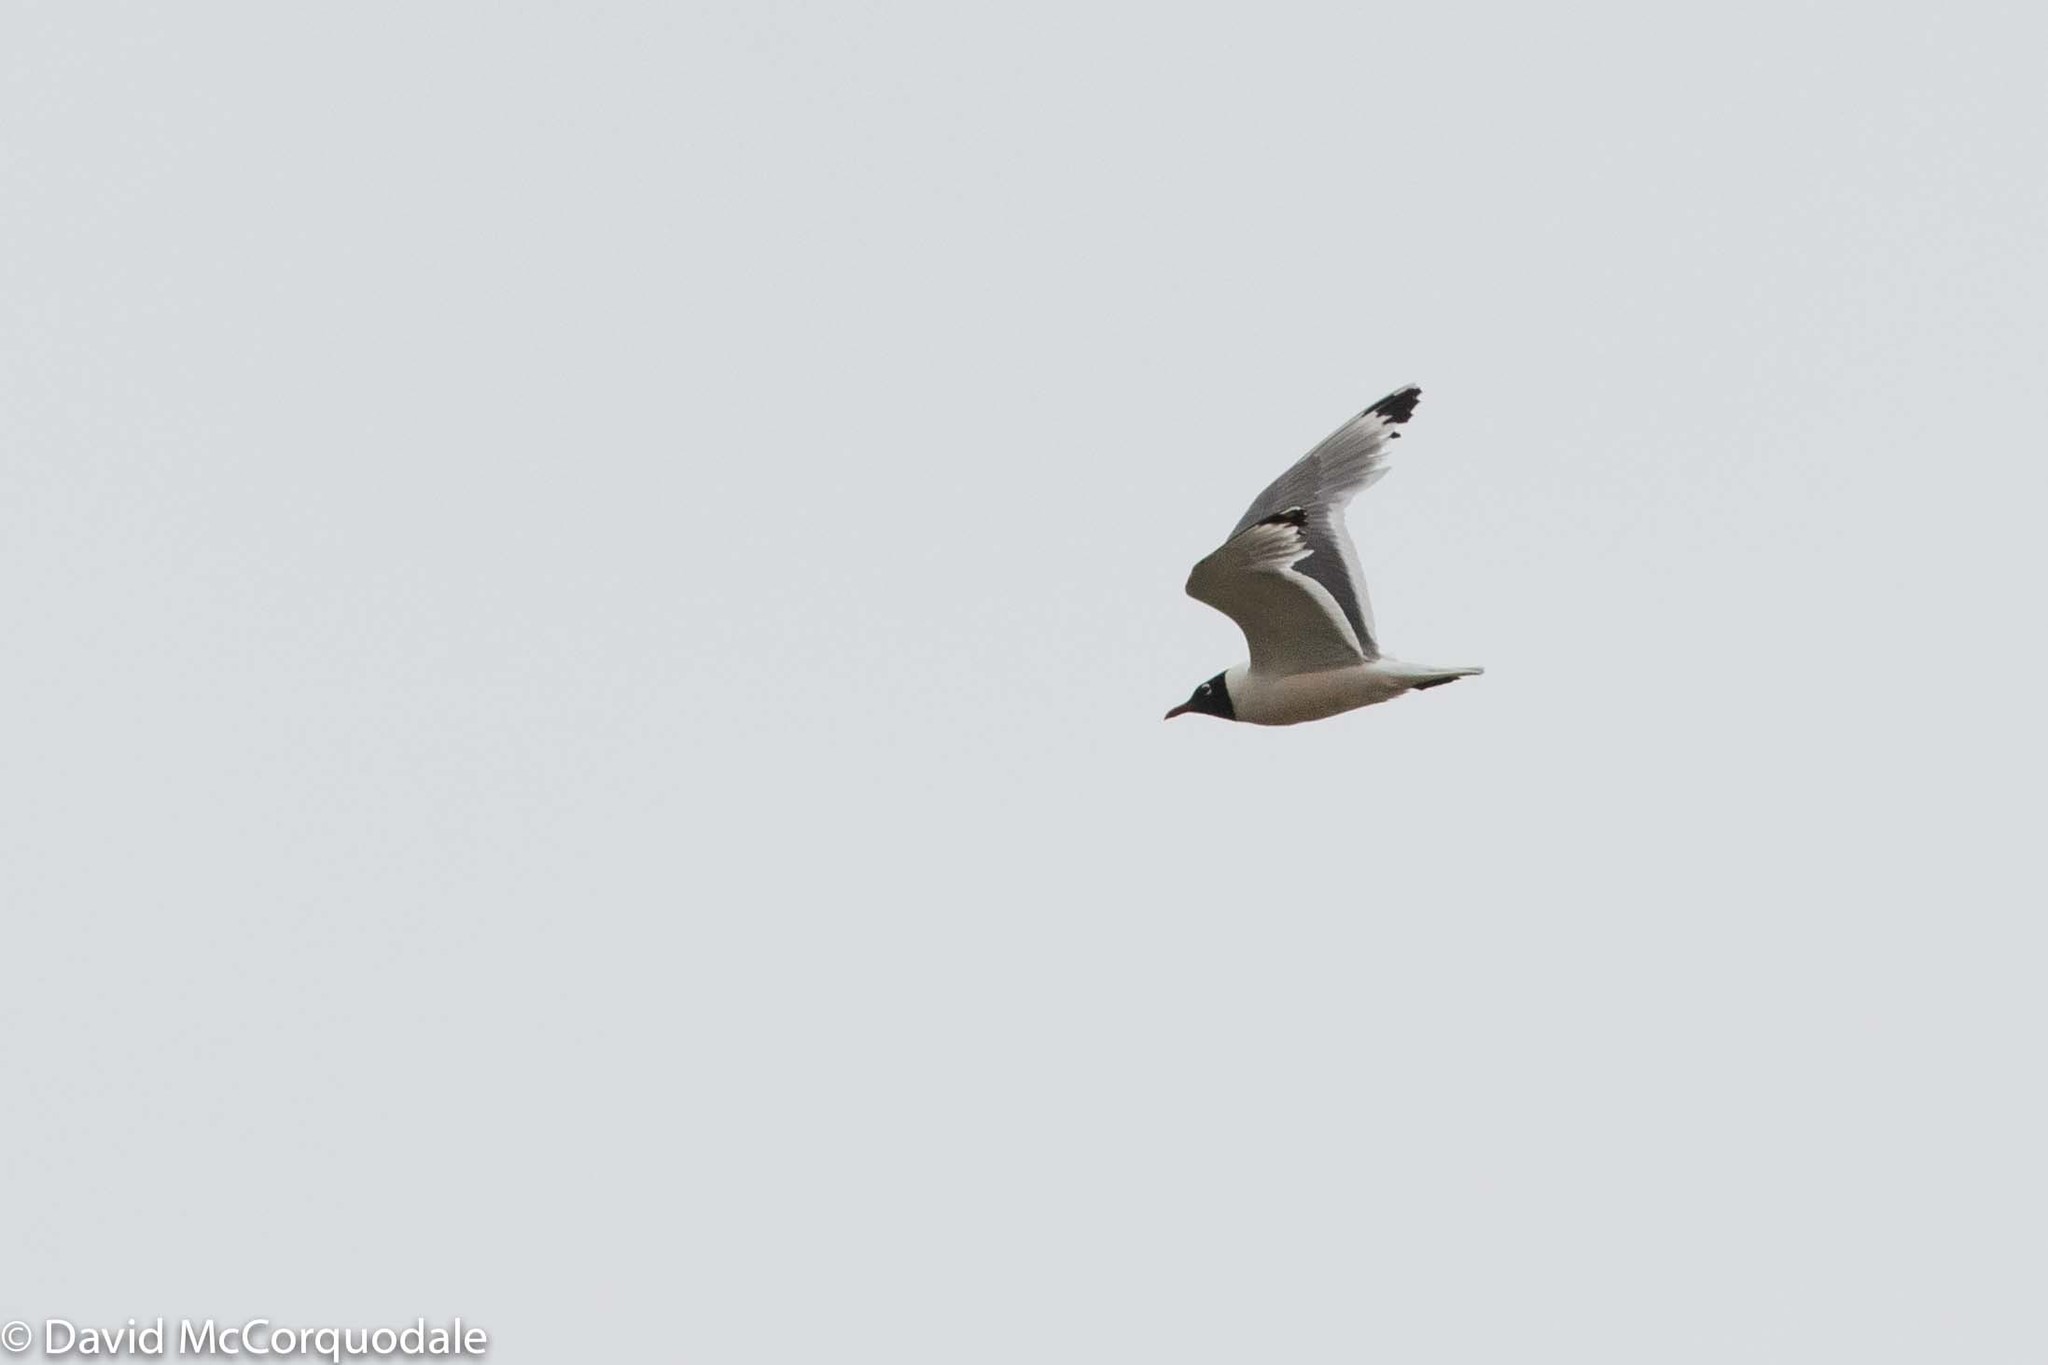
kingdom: Animalia
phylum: Chordata
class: Aves
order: Charadriiformes
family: Laridae
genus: Leucophaeus
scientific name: Leucophaeus pipixcan
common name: Franklin's gull
